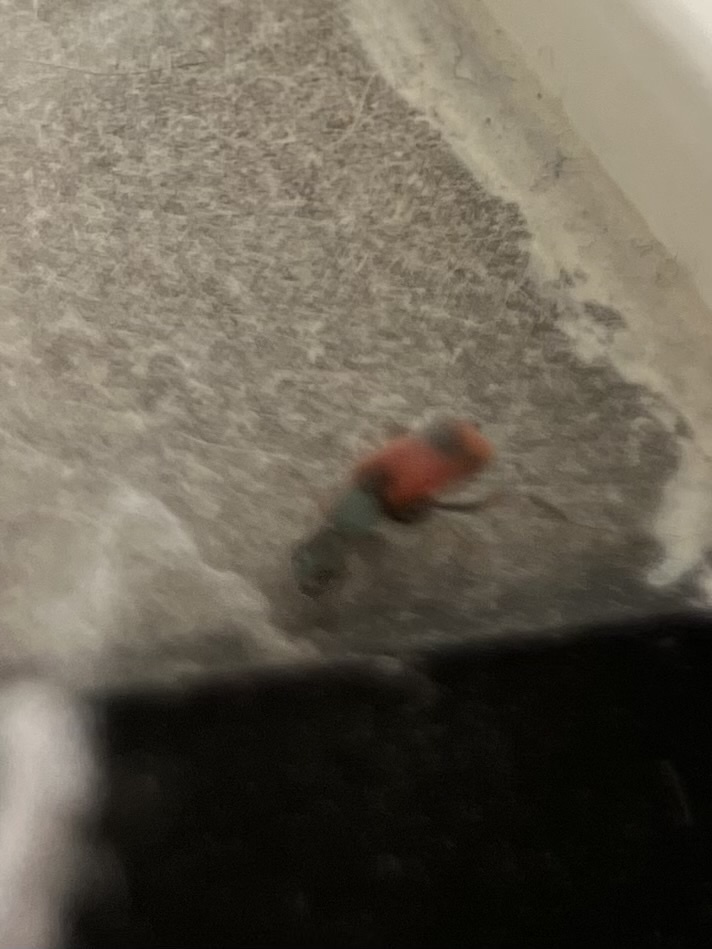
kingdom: Animalia
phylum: Arthropoda
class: Insecta
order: Coleoptera
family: Melyridae
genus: Anthocomus
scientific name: Anthocomus equestris
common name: Black-banded soft-winged flower beetle
